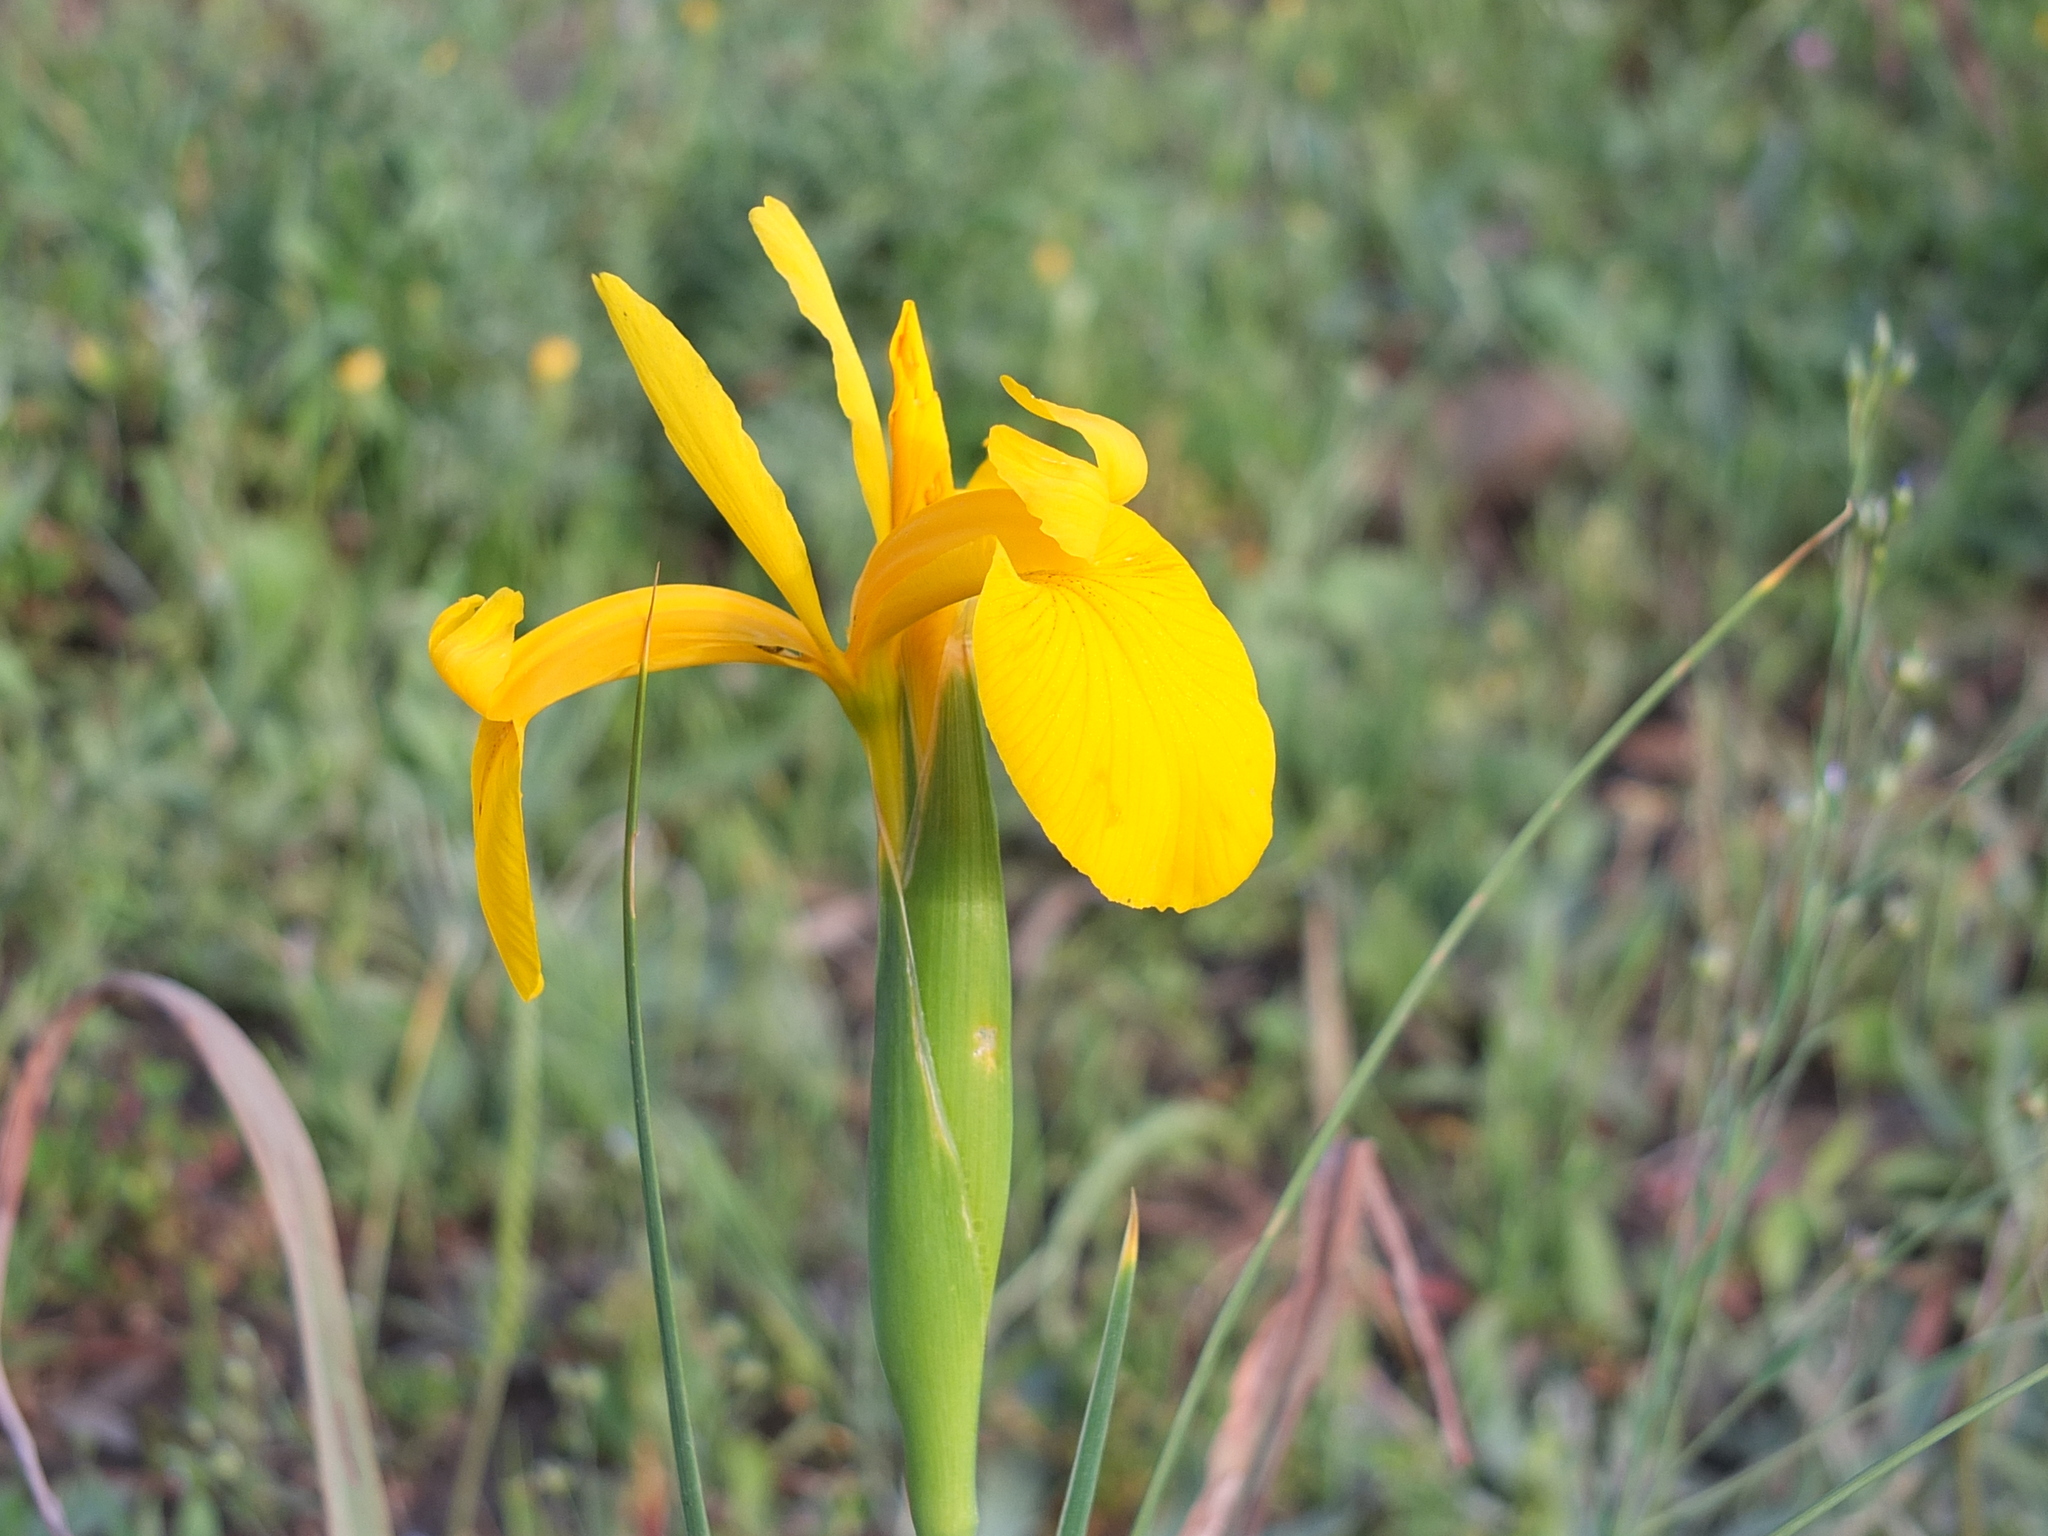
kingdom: Plantae
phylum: Tracheophyta
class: Liliopsida
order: Asparagales
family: Iridaceae
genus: Iris
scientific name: Iris juncea
